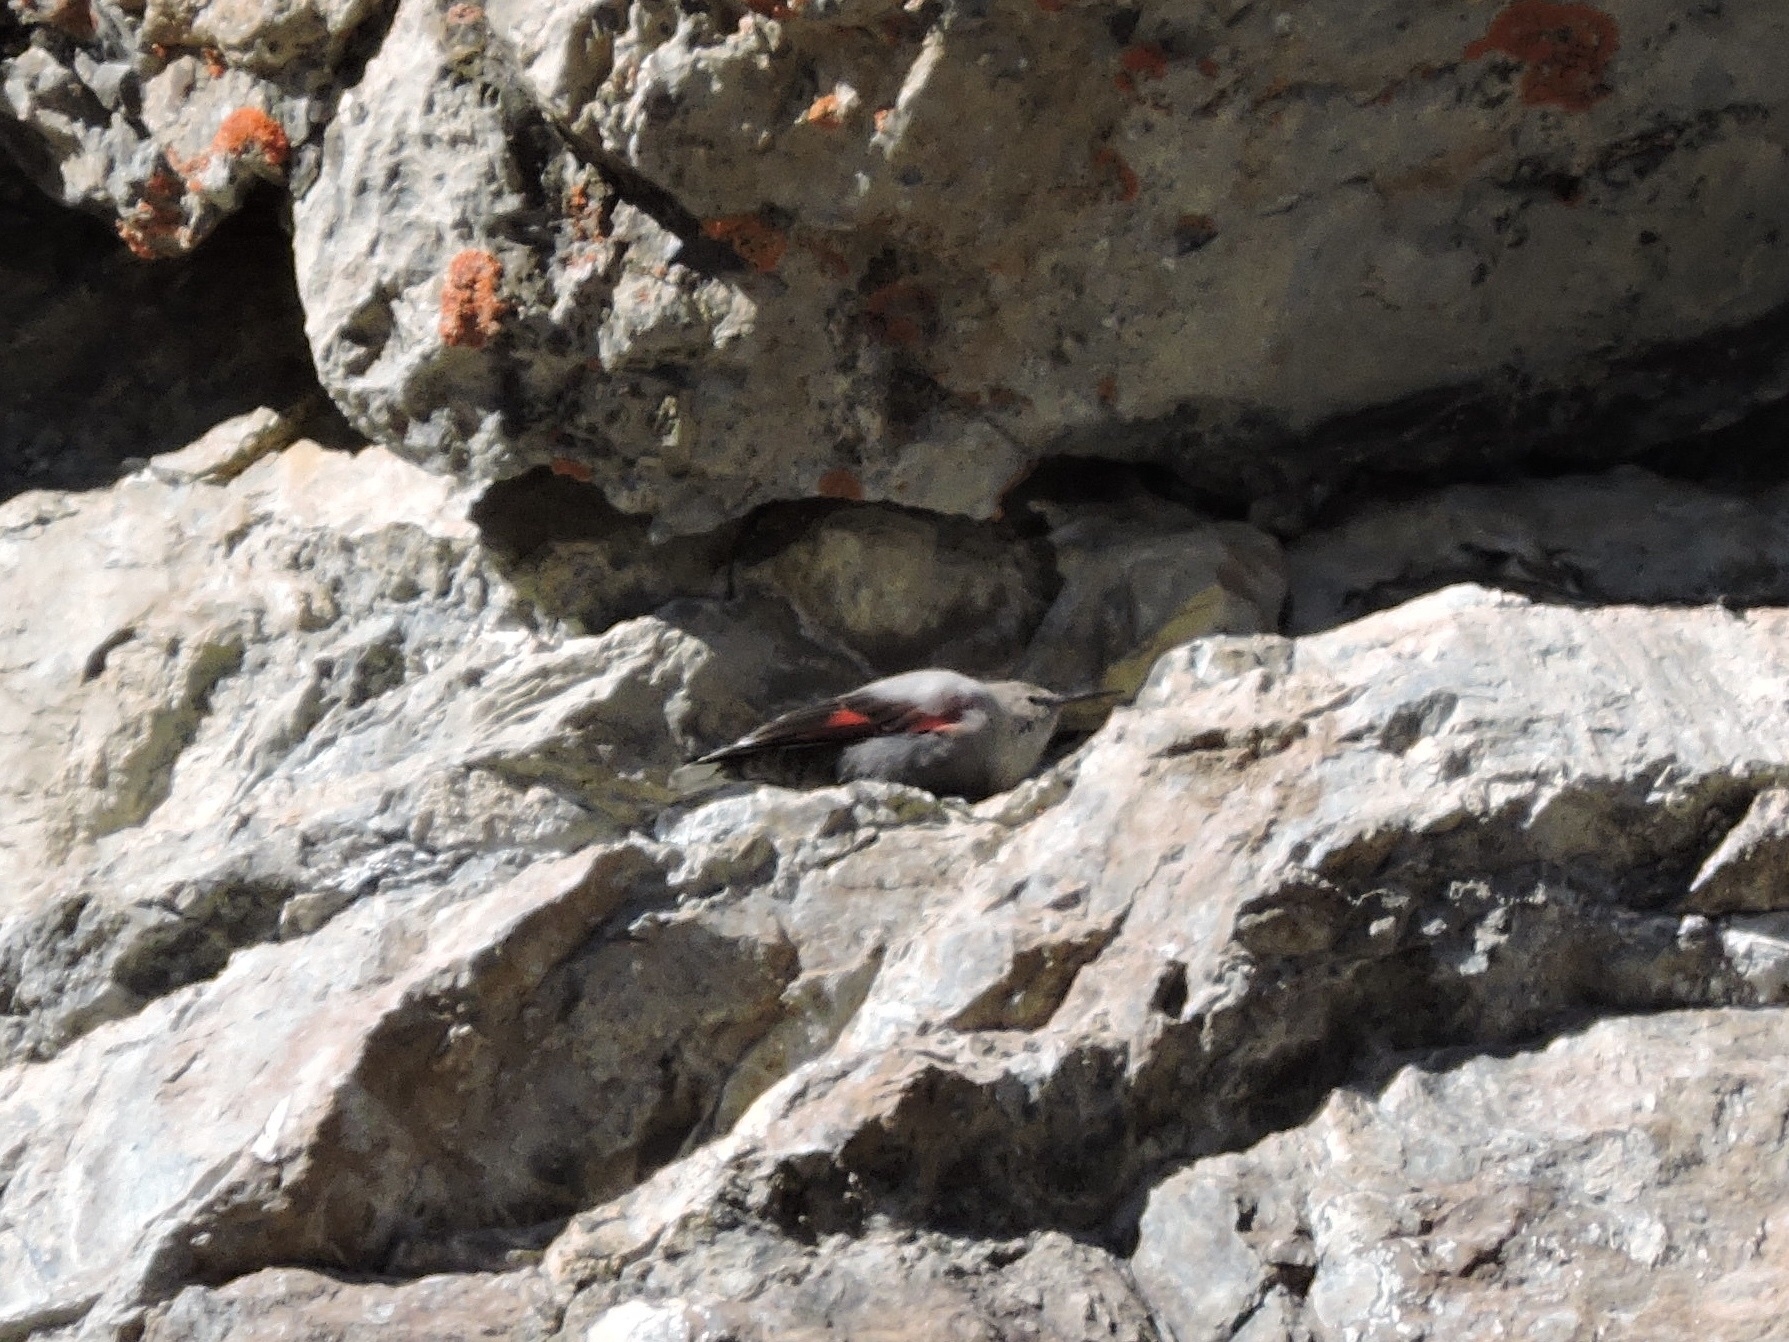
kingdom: Animalia
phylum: Chordata
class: Aves
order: Passeriformes
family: Tichodromidae
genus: Tichodroma
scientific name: Tichodroma muraria
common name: Wallcreeper
